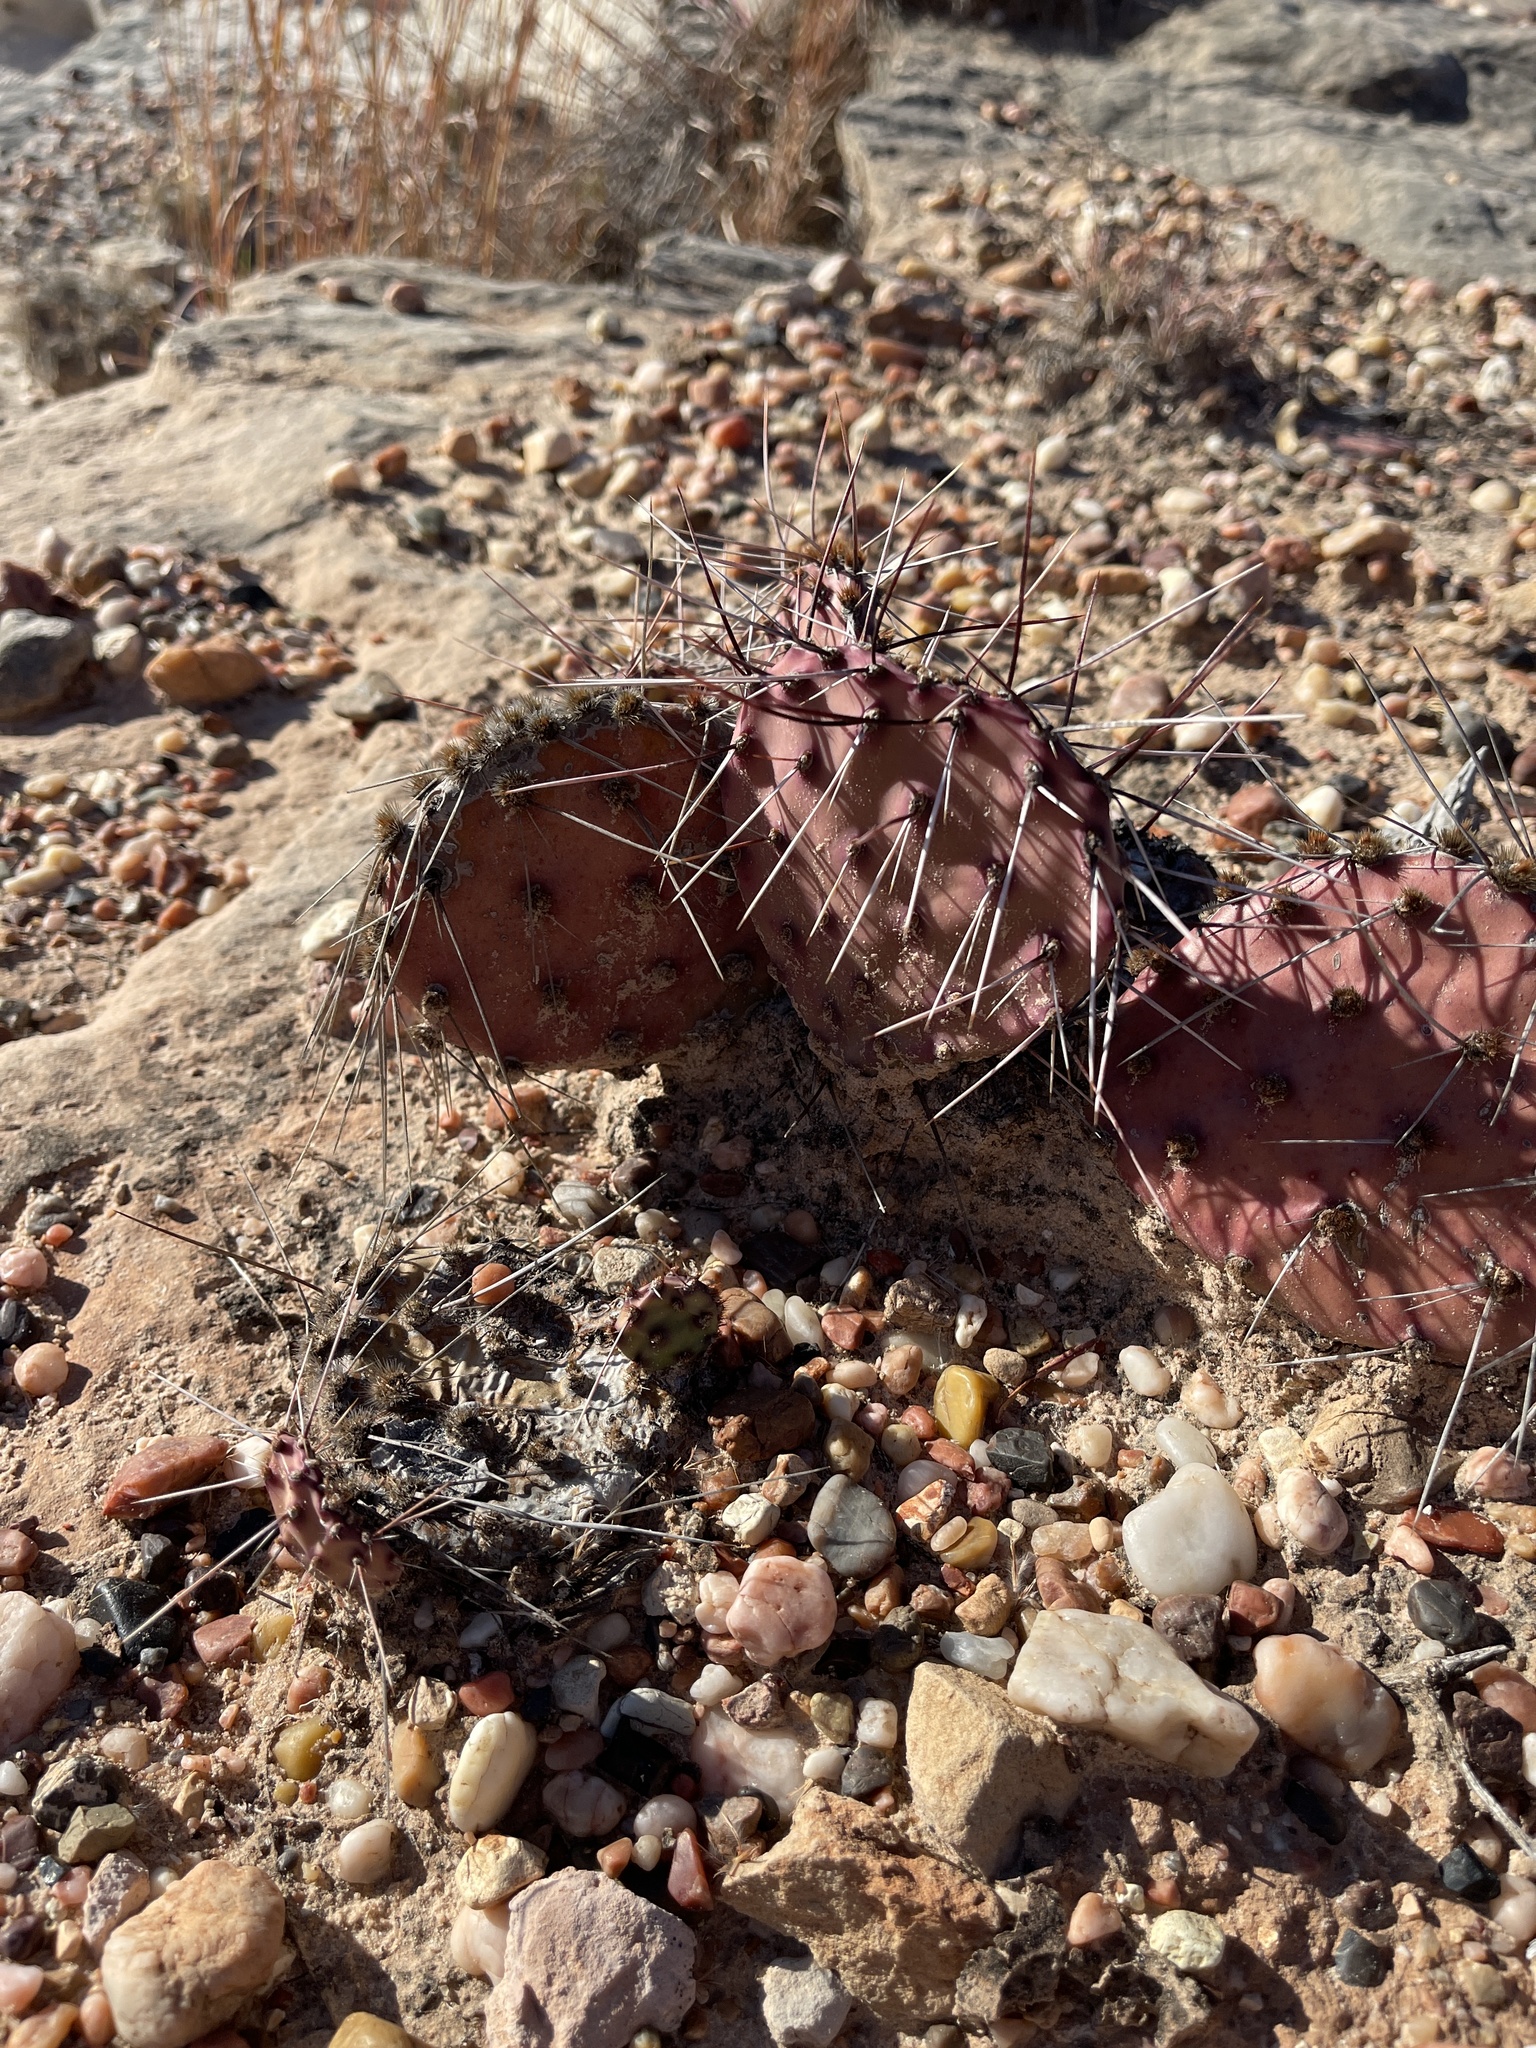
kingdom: Plantae
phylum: Tracheophyta
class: Magnoliopsida
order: Caryophyllales
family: Cactaceae
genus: Opuntia
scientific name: Opuntia phaeacantha
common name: New mexico prickly-pear
